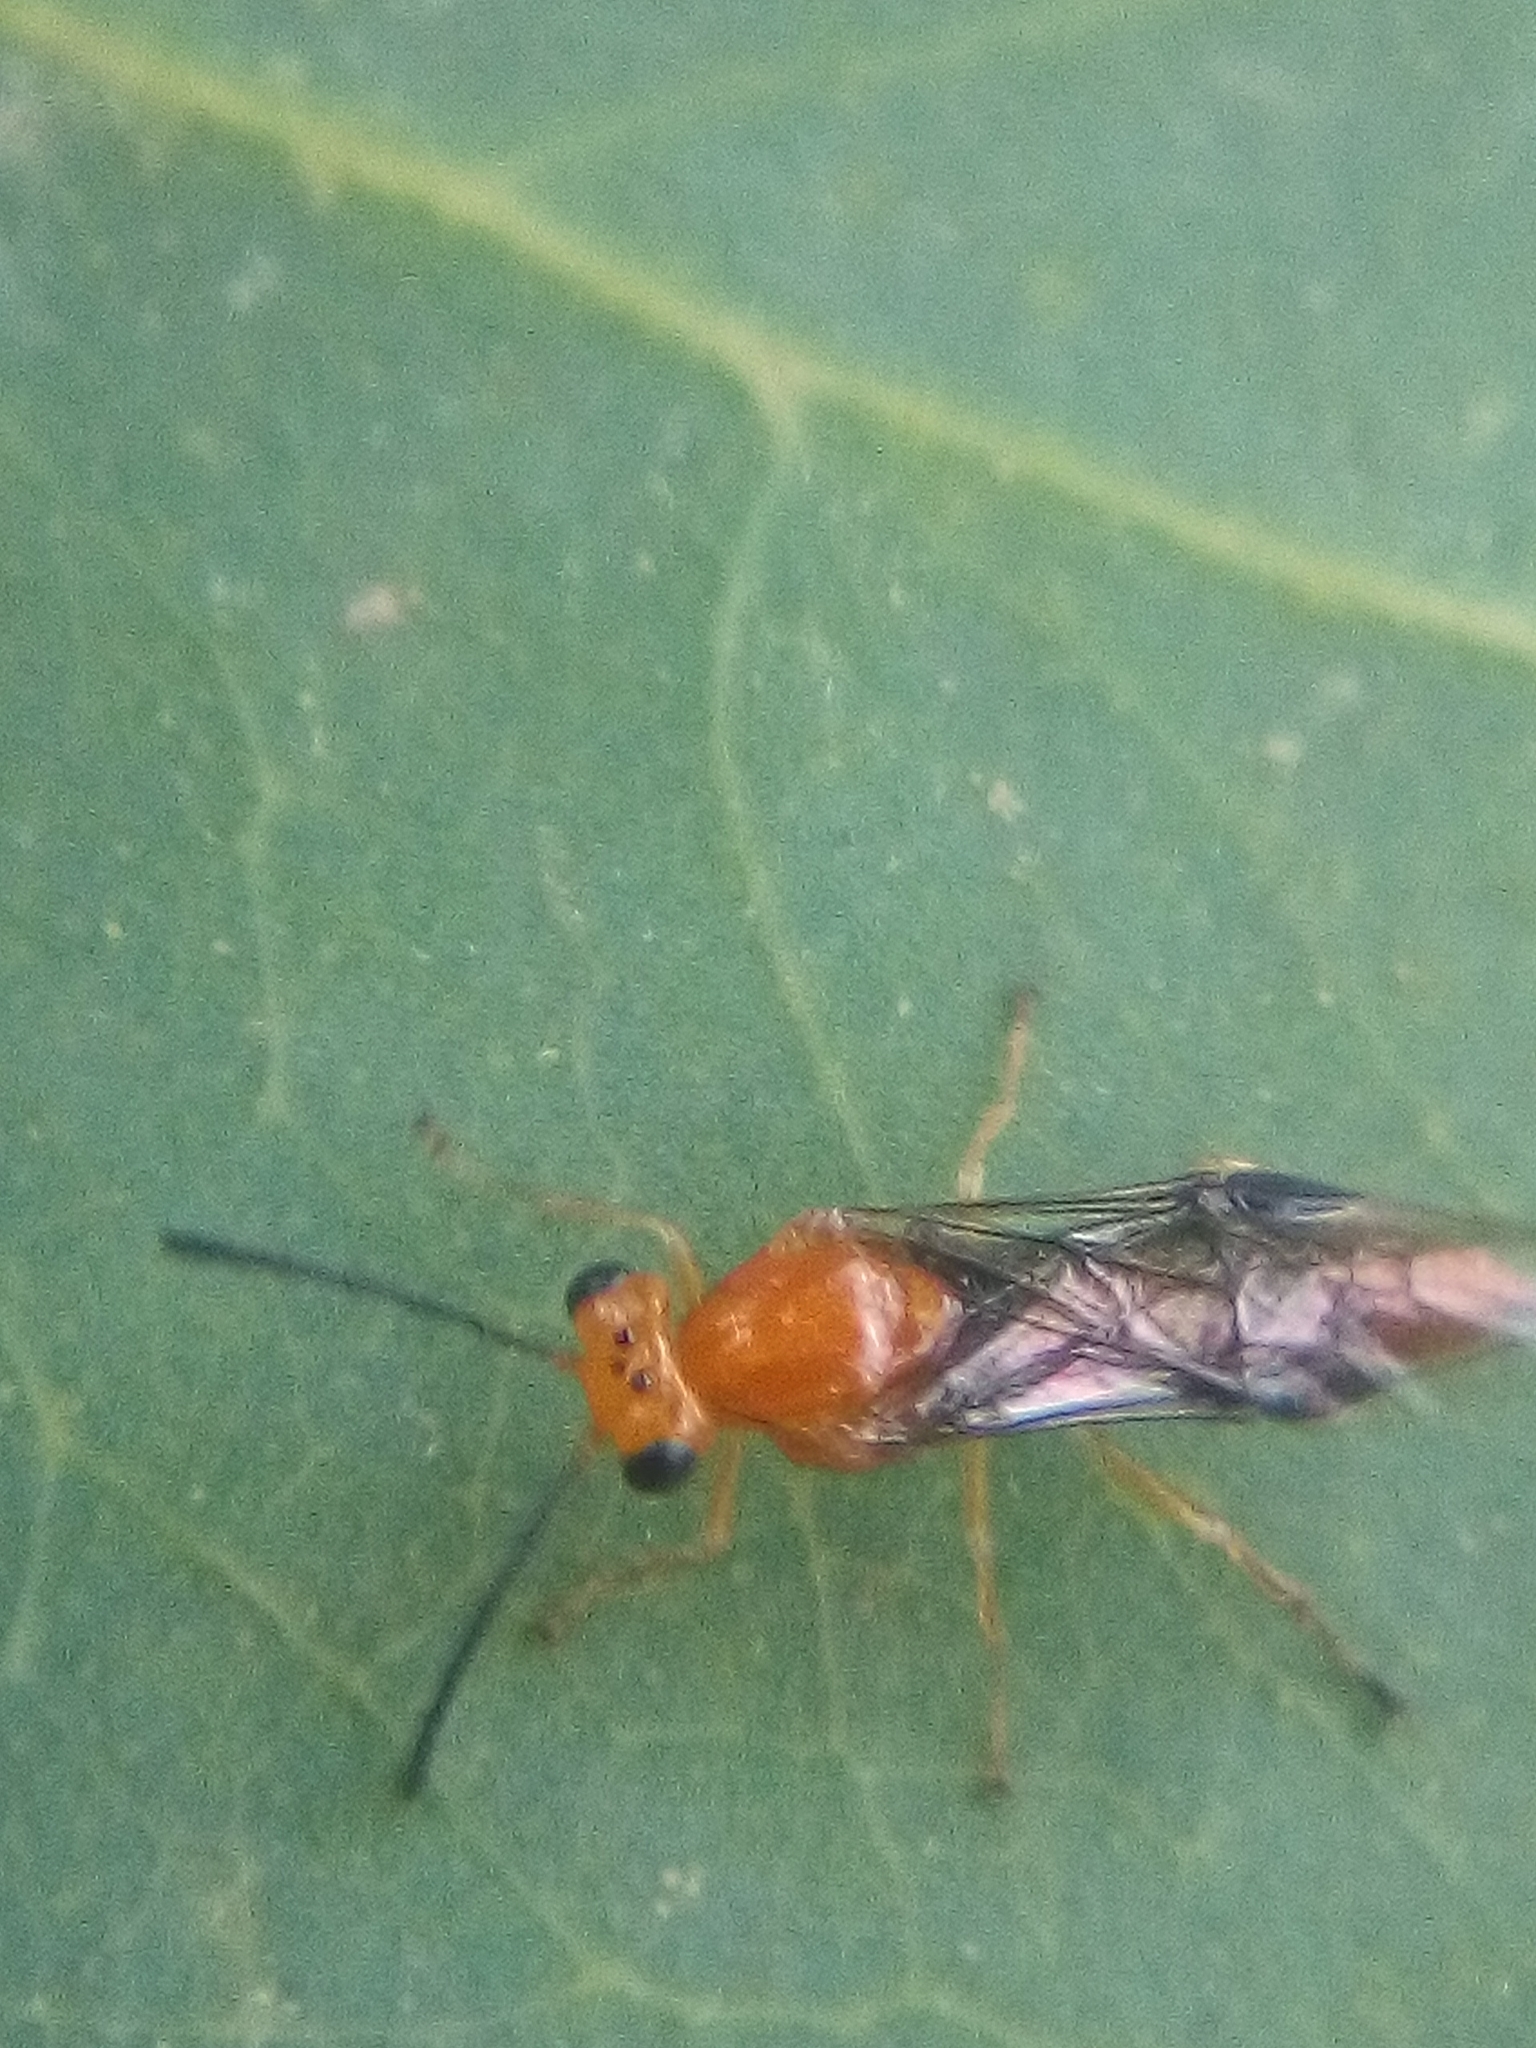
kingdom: Animalia
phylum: Arthropoda
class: Insecta
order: Hymenoptera
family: Pergidae
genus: Phylacteophaga
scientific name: Phylacteophaga froggatti
